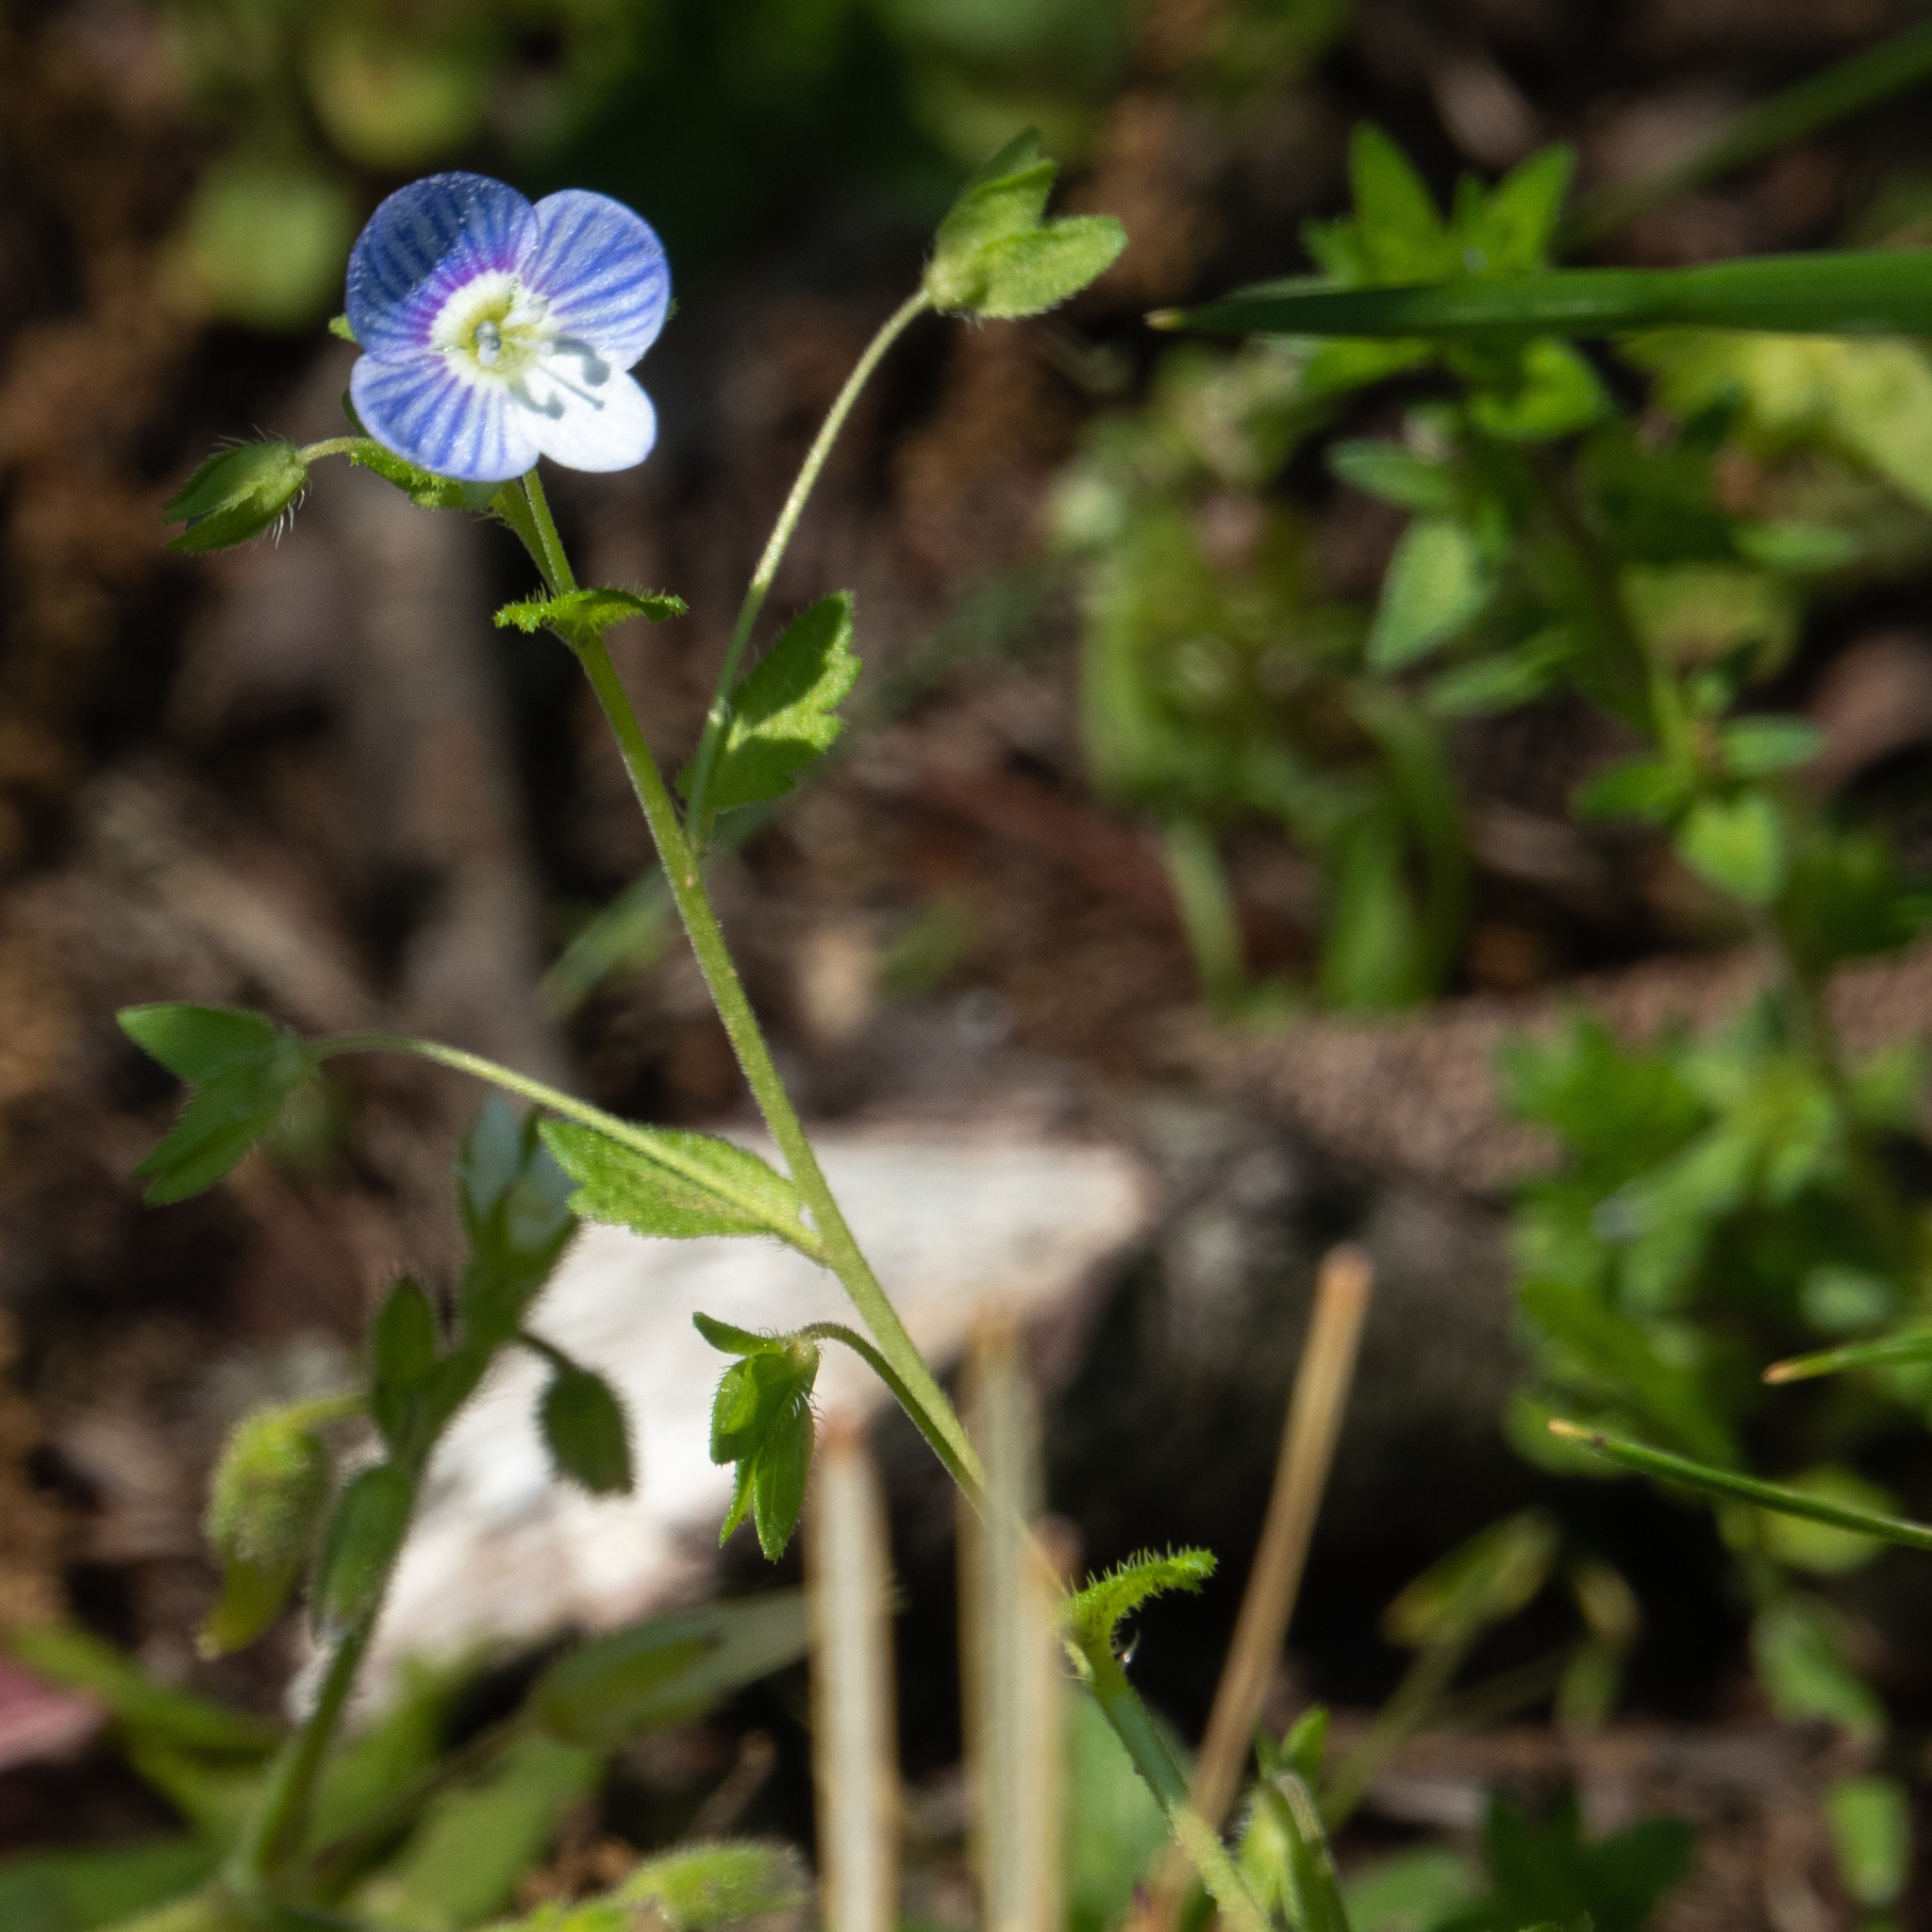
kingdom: Plantae
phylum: Tracheophyta
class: Magnoliopsida
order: Lamiales
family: Plantaginaceae
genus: Veronica
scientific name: Veronica persica
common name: Common field-speedwell
